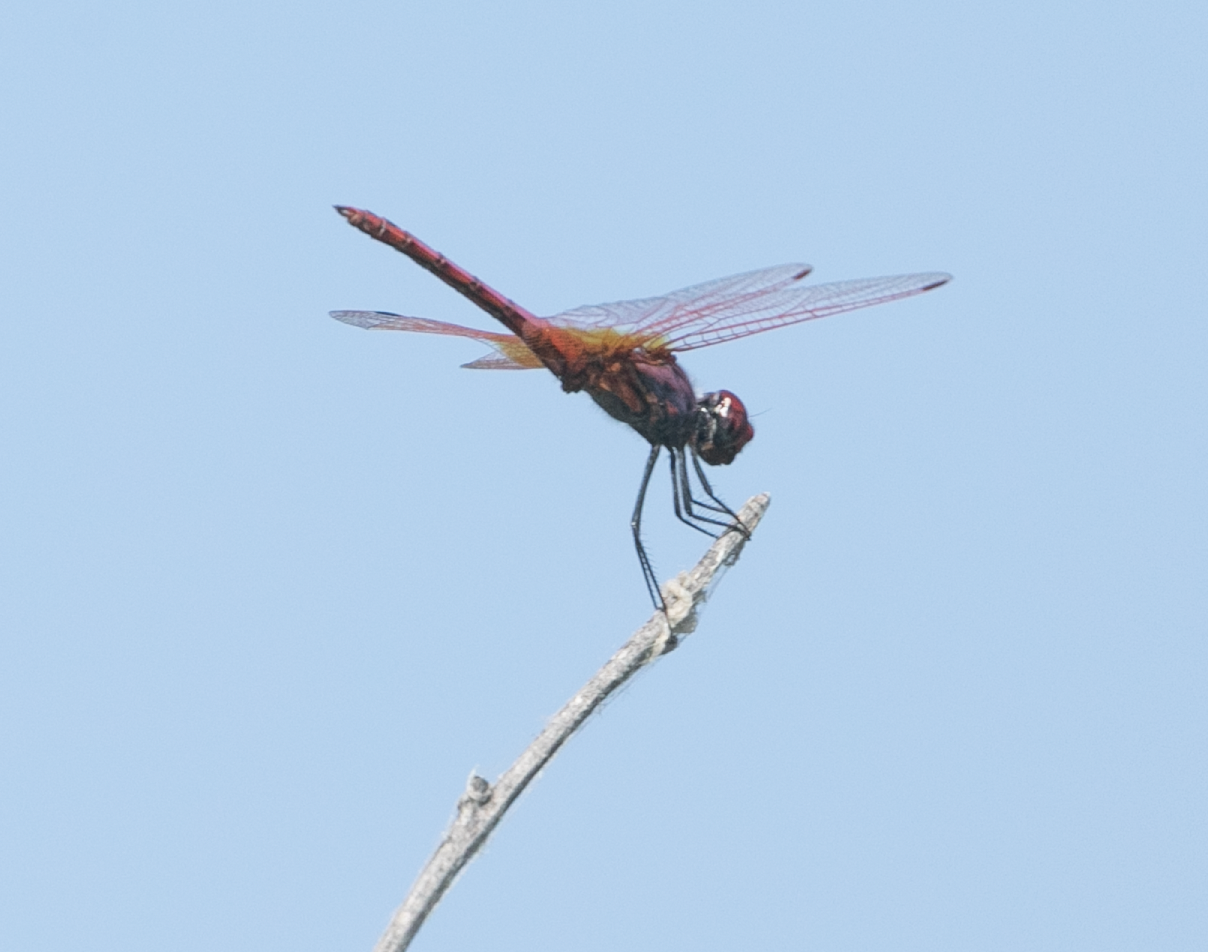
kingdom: Animalia
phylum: Arthropoda
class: Insecta
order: Odonata
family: Libellulidae
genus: Trithemis
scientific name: Trithemis annulata
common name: Violet dropwing
